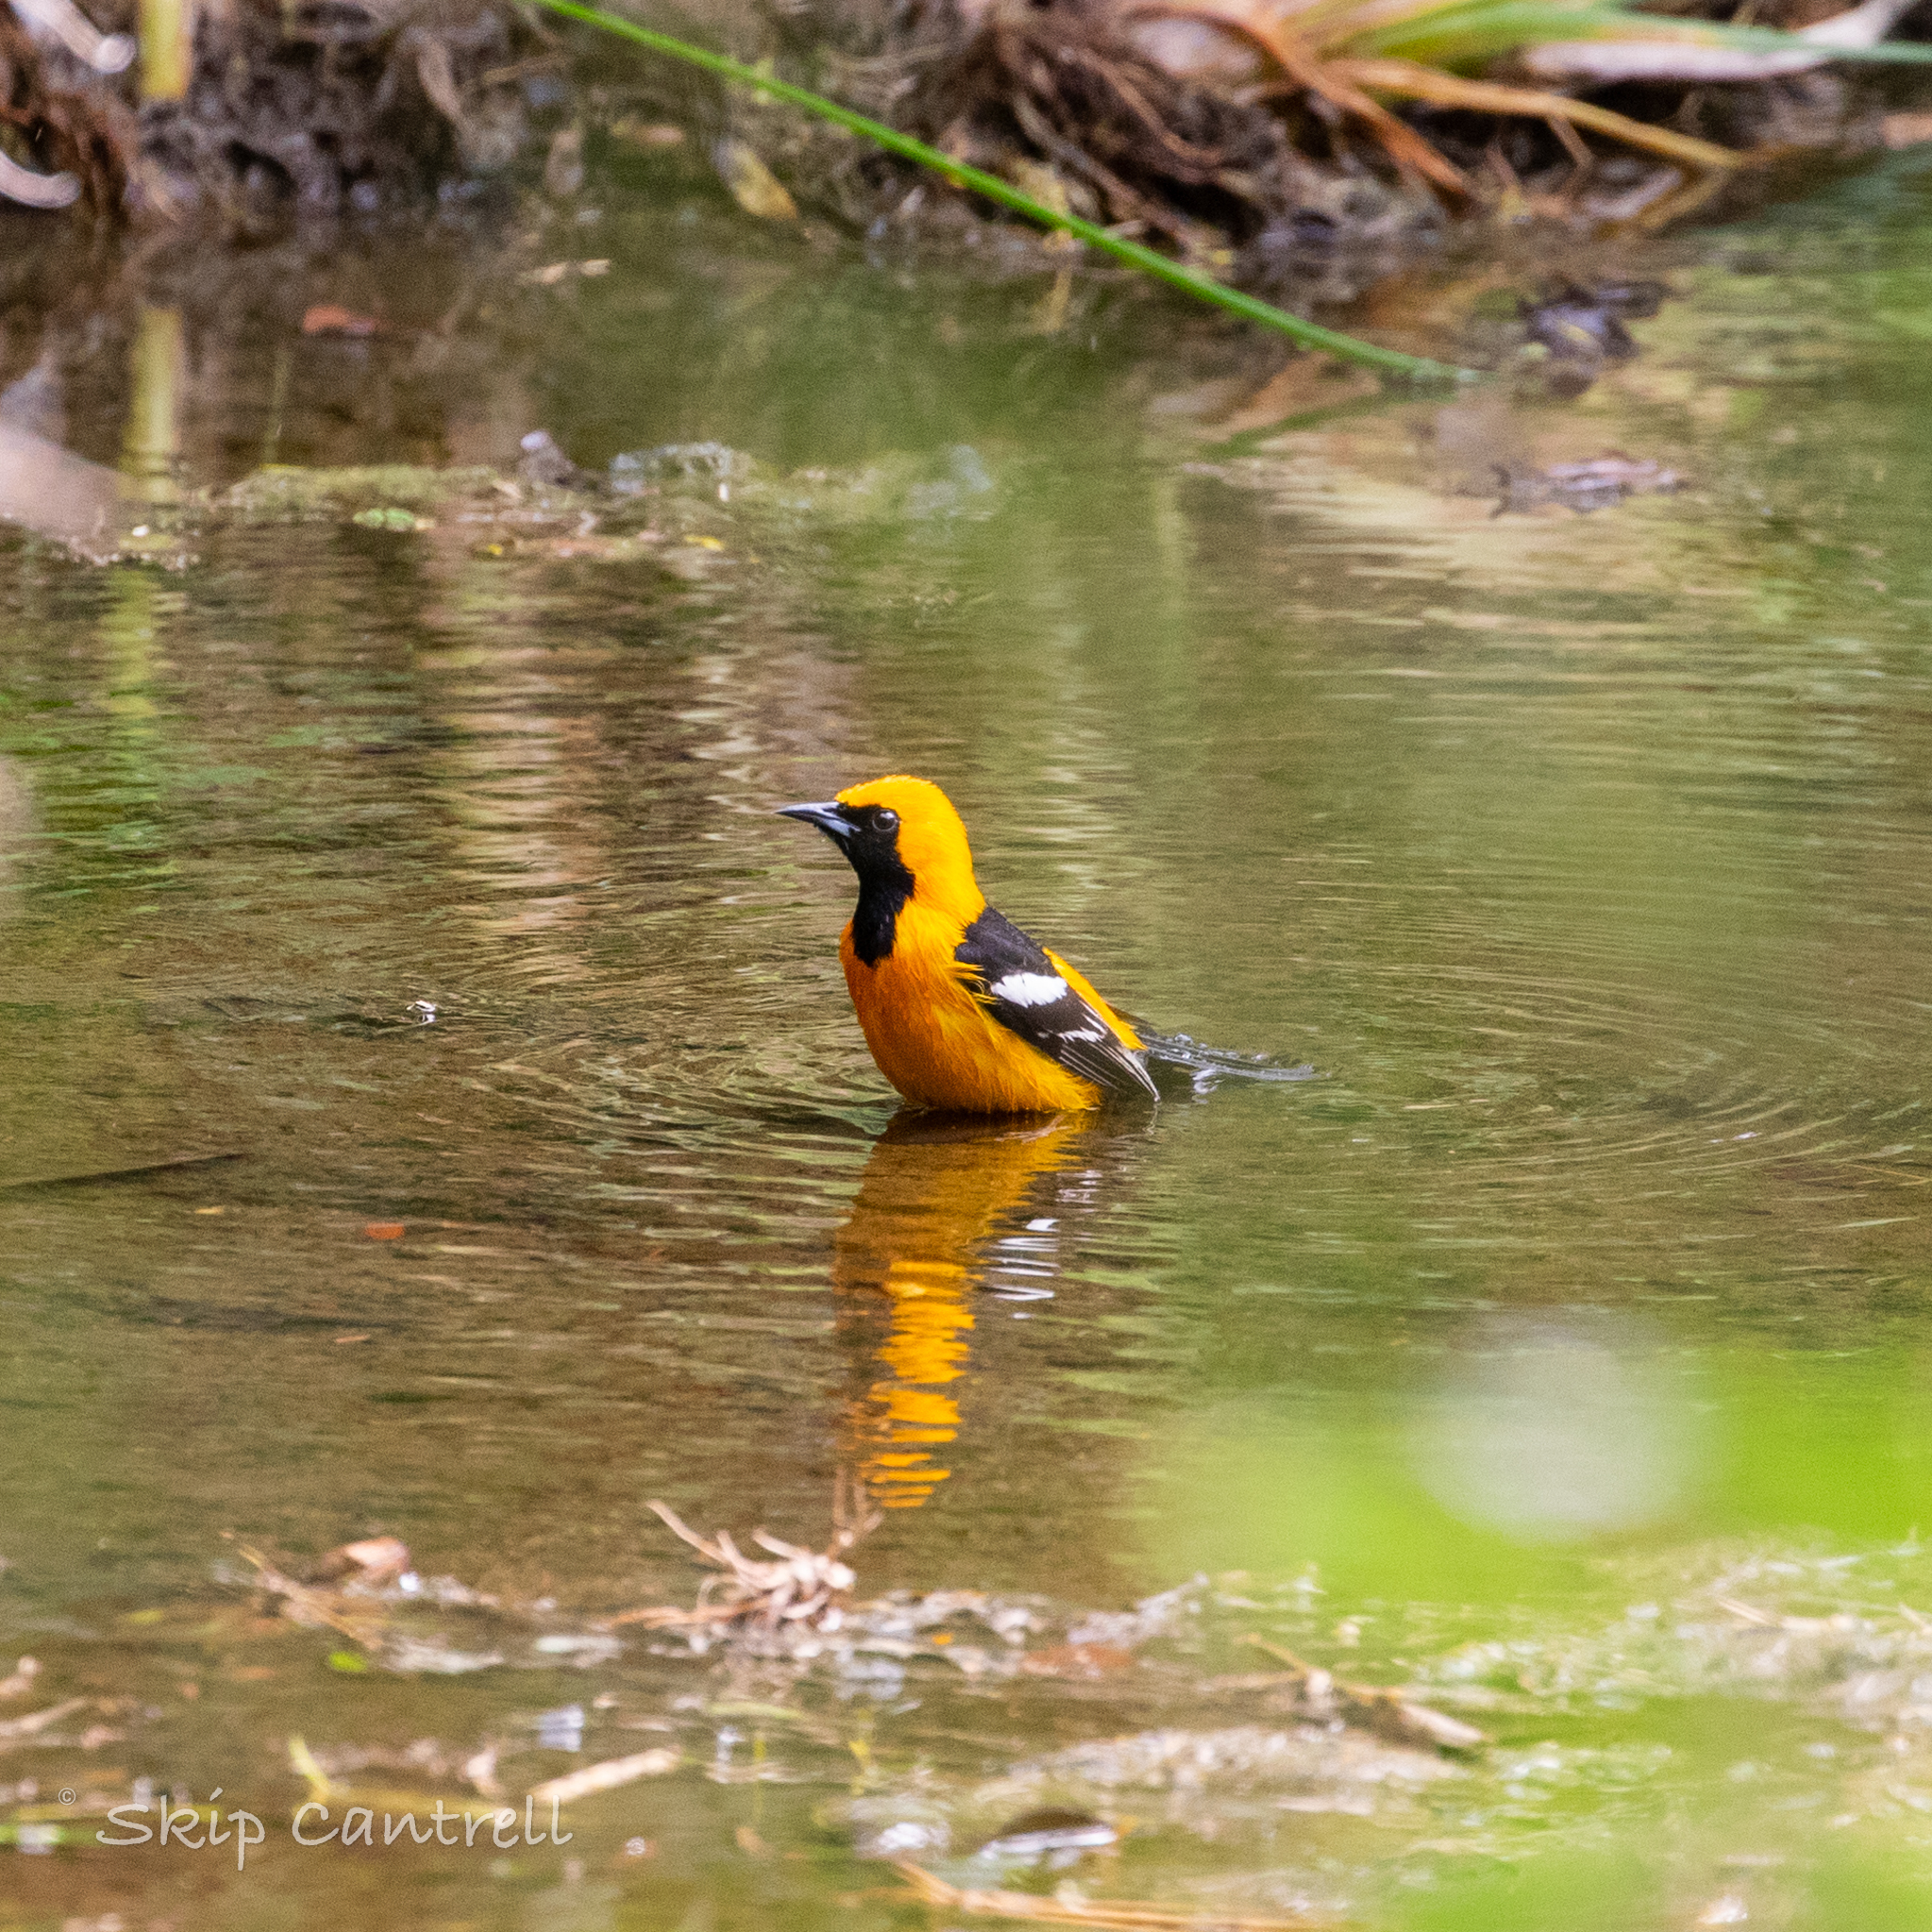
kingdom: Animalia
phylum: Chordata
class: Aves
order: Passeriformes
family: Icteridae
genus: Icterus
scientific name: Icterus cucullatus
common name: Hooded oriole
